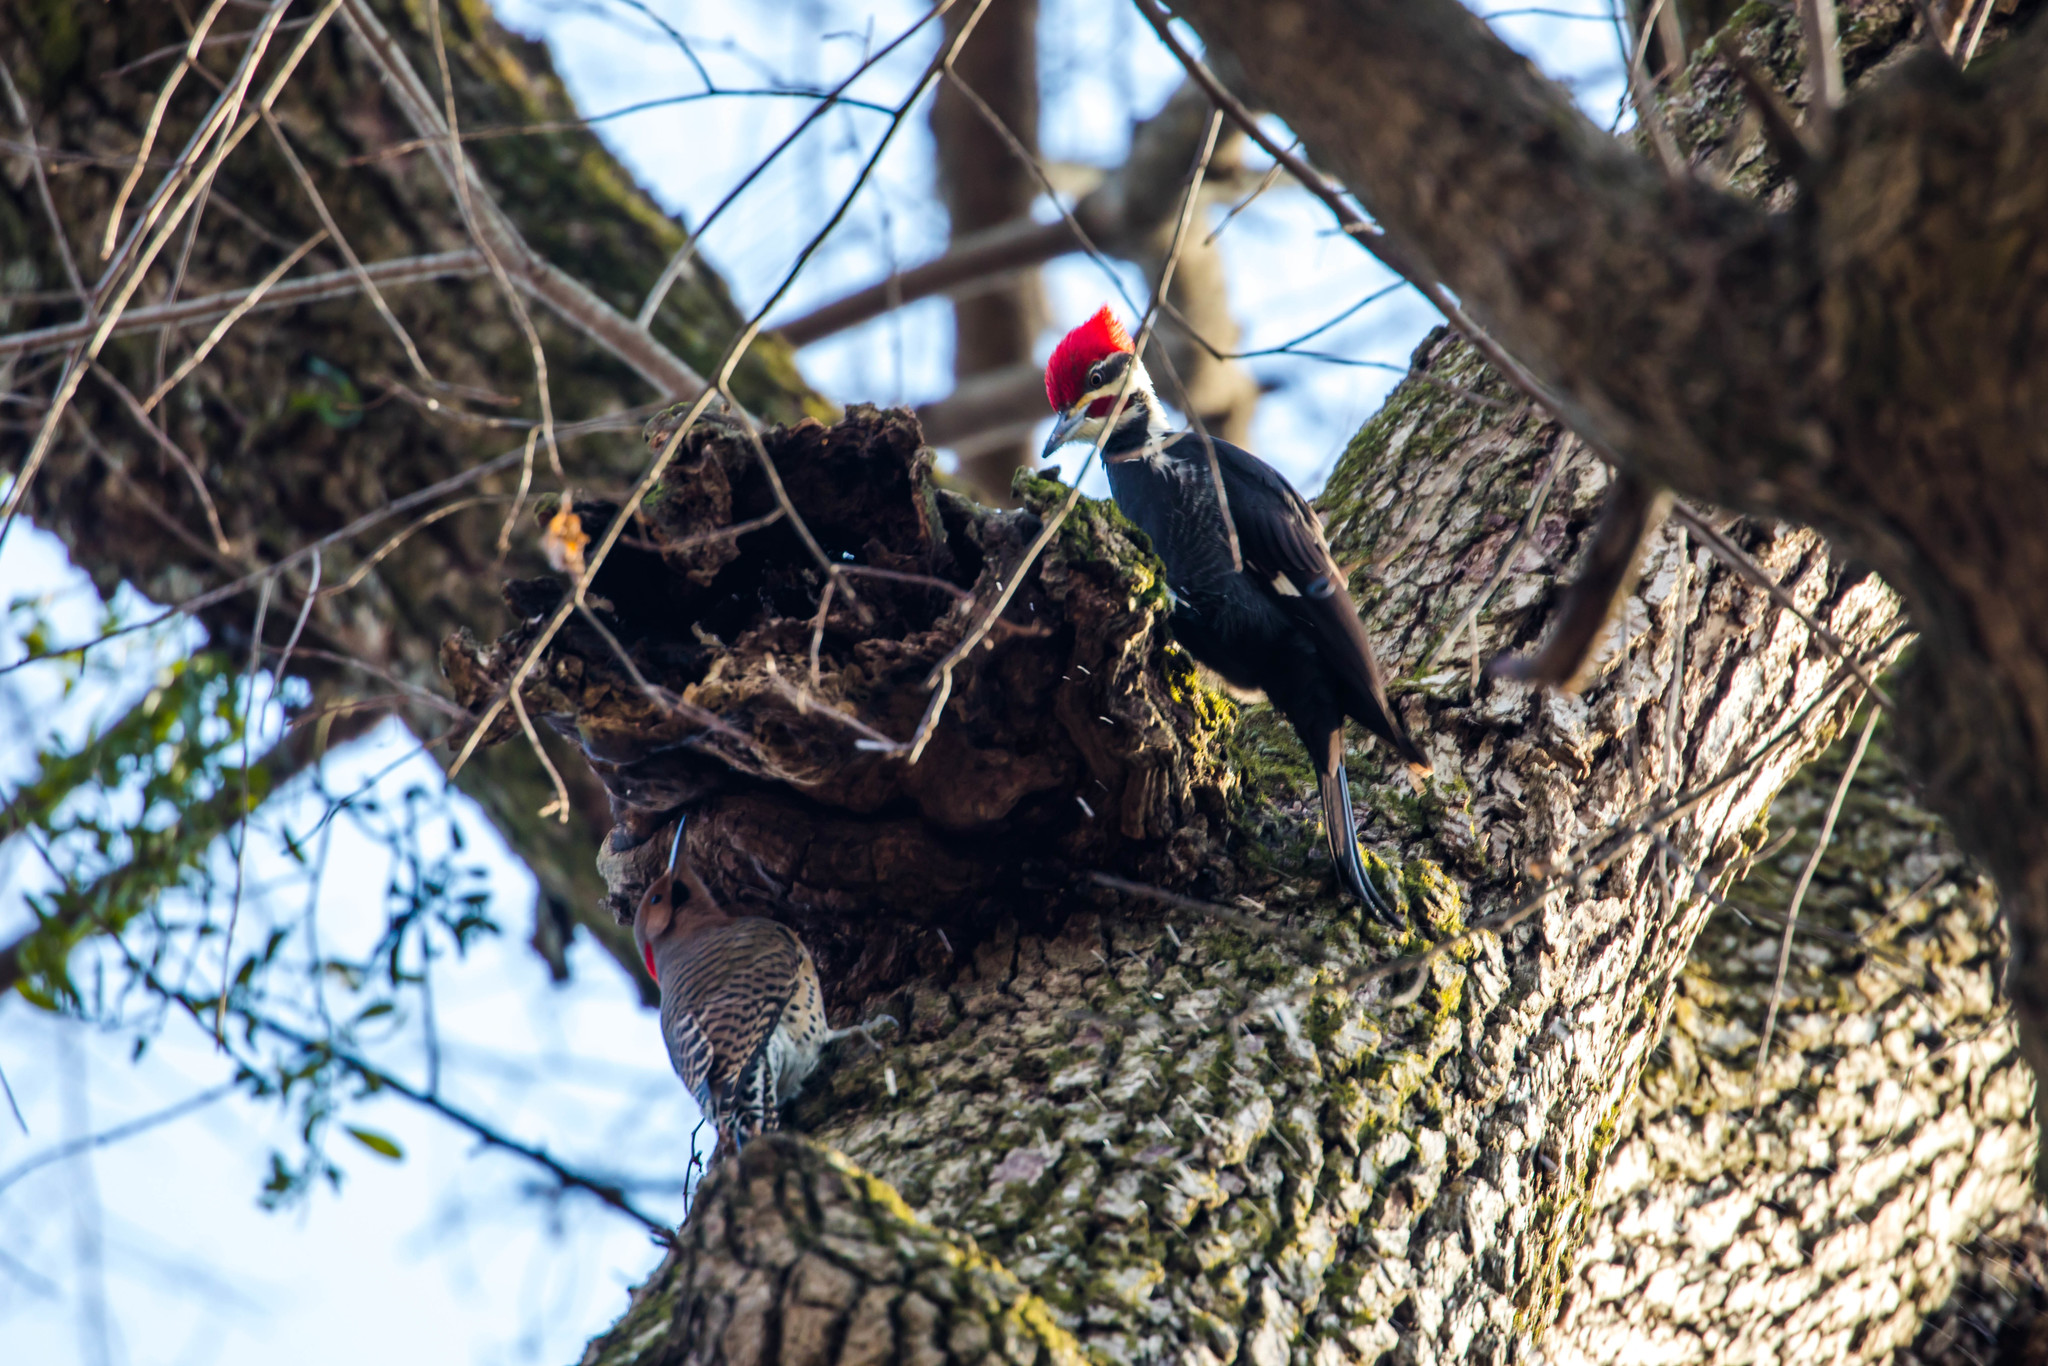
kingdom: Animalia
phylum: Chordata
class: Aves
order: Piciformes
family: Picidae
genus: Dryocopus
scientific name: Dryocopus pileatus
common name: Pileated woodpecker
